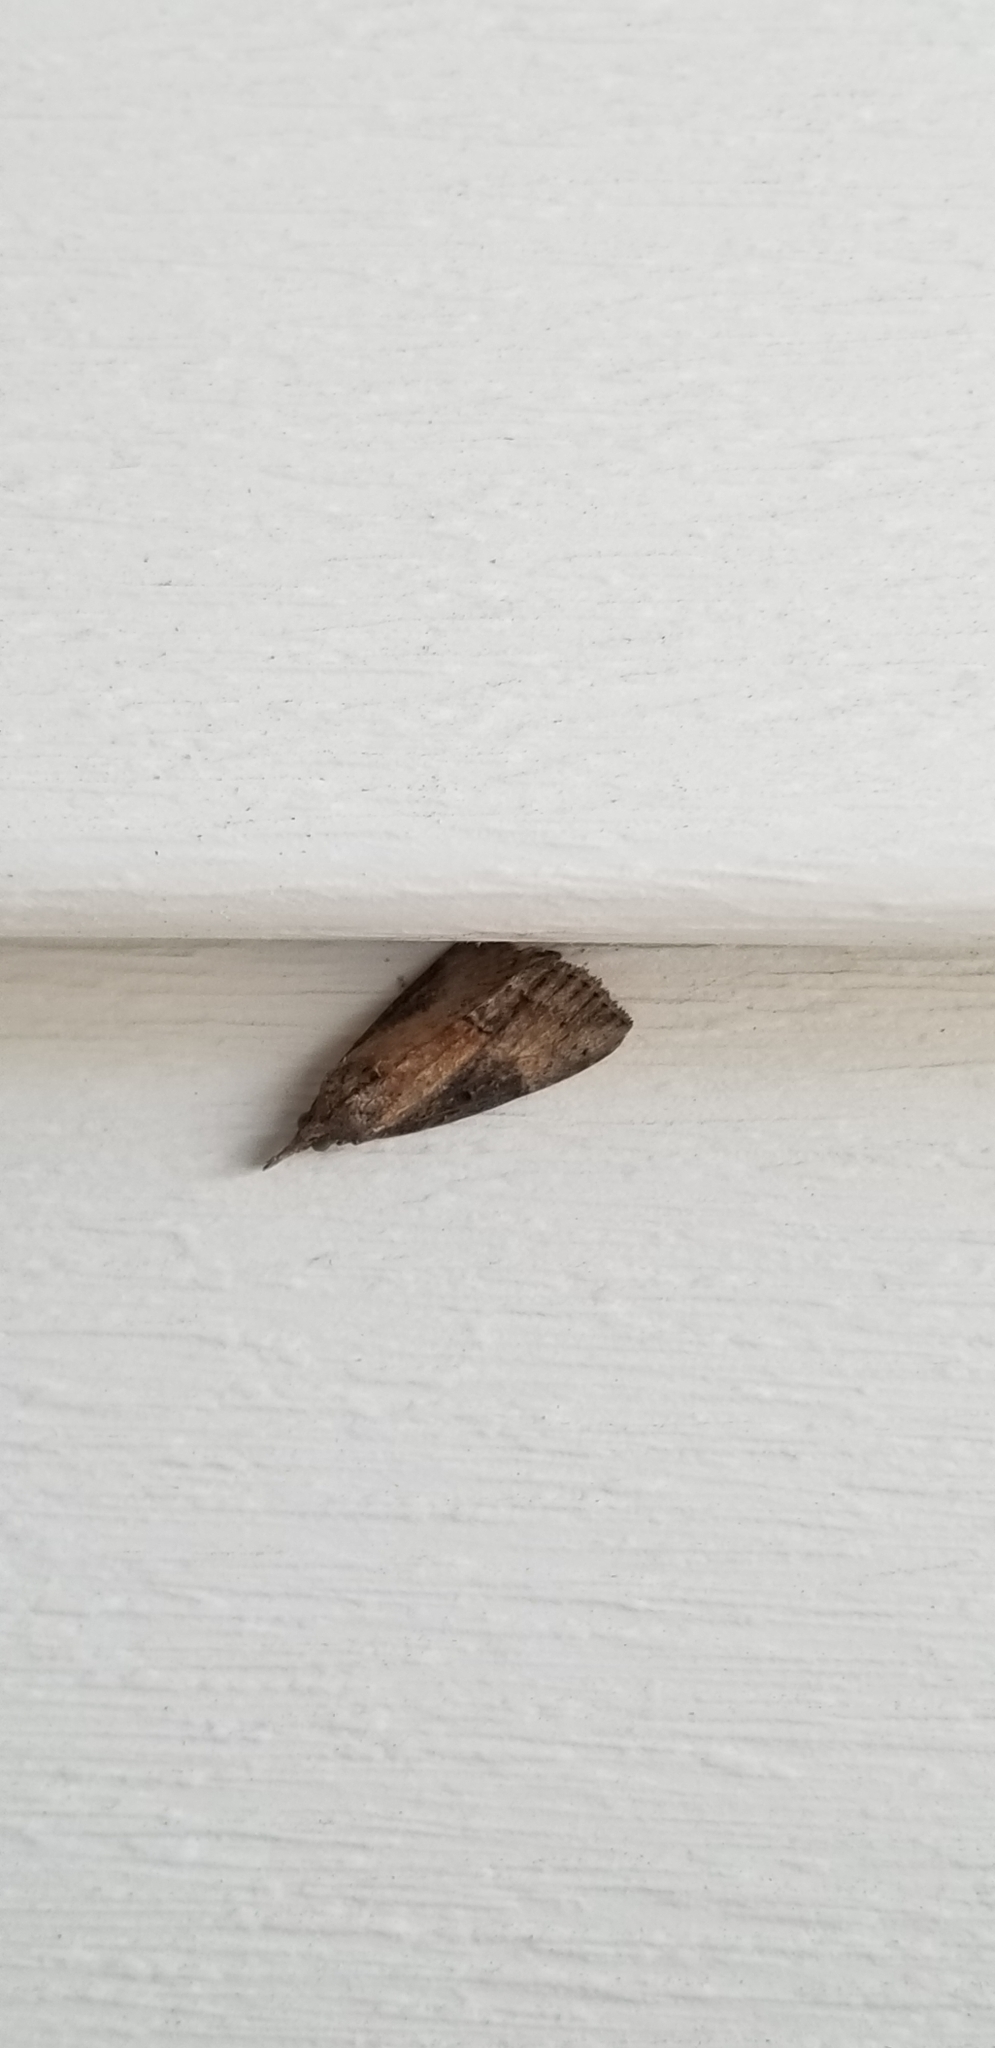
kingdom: Animalia
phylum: Arthropoda
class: Insecta
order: Lepidoptera
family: Erebidae
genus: Hypena
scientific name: Hypena scabra
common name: Green cloverworm
